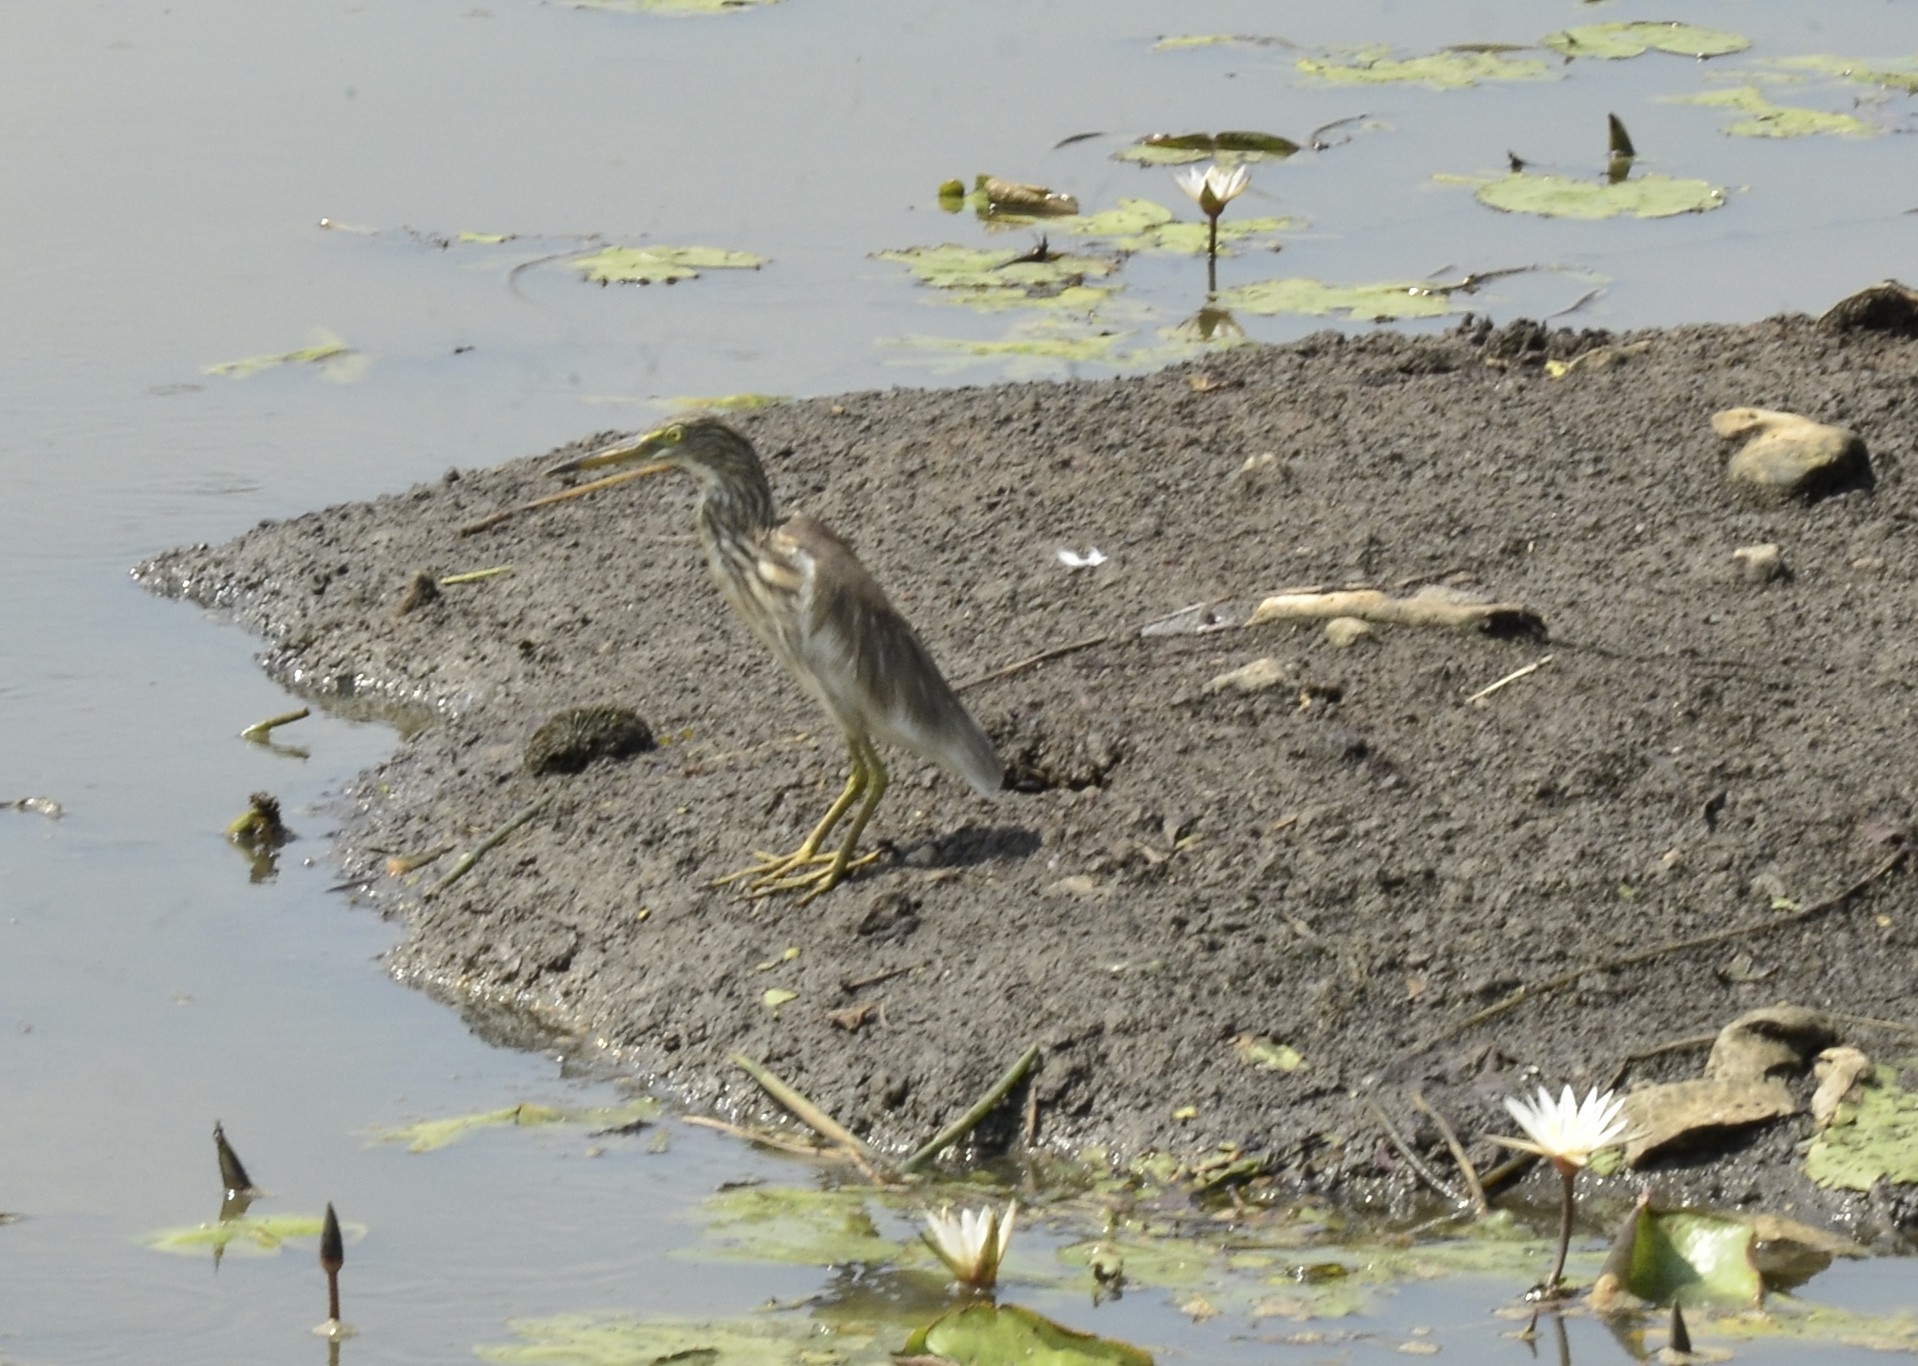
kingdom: Animalia
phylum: Chordata
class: Aves
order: Pelecaniformes
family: Ardeidae
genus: Ardeola
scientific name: Ardeola grayii
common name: Indian pond heron
